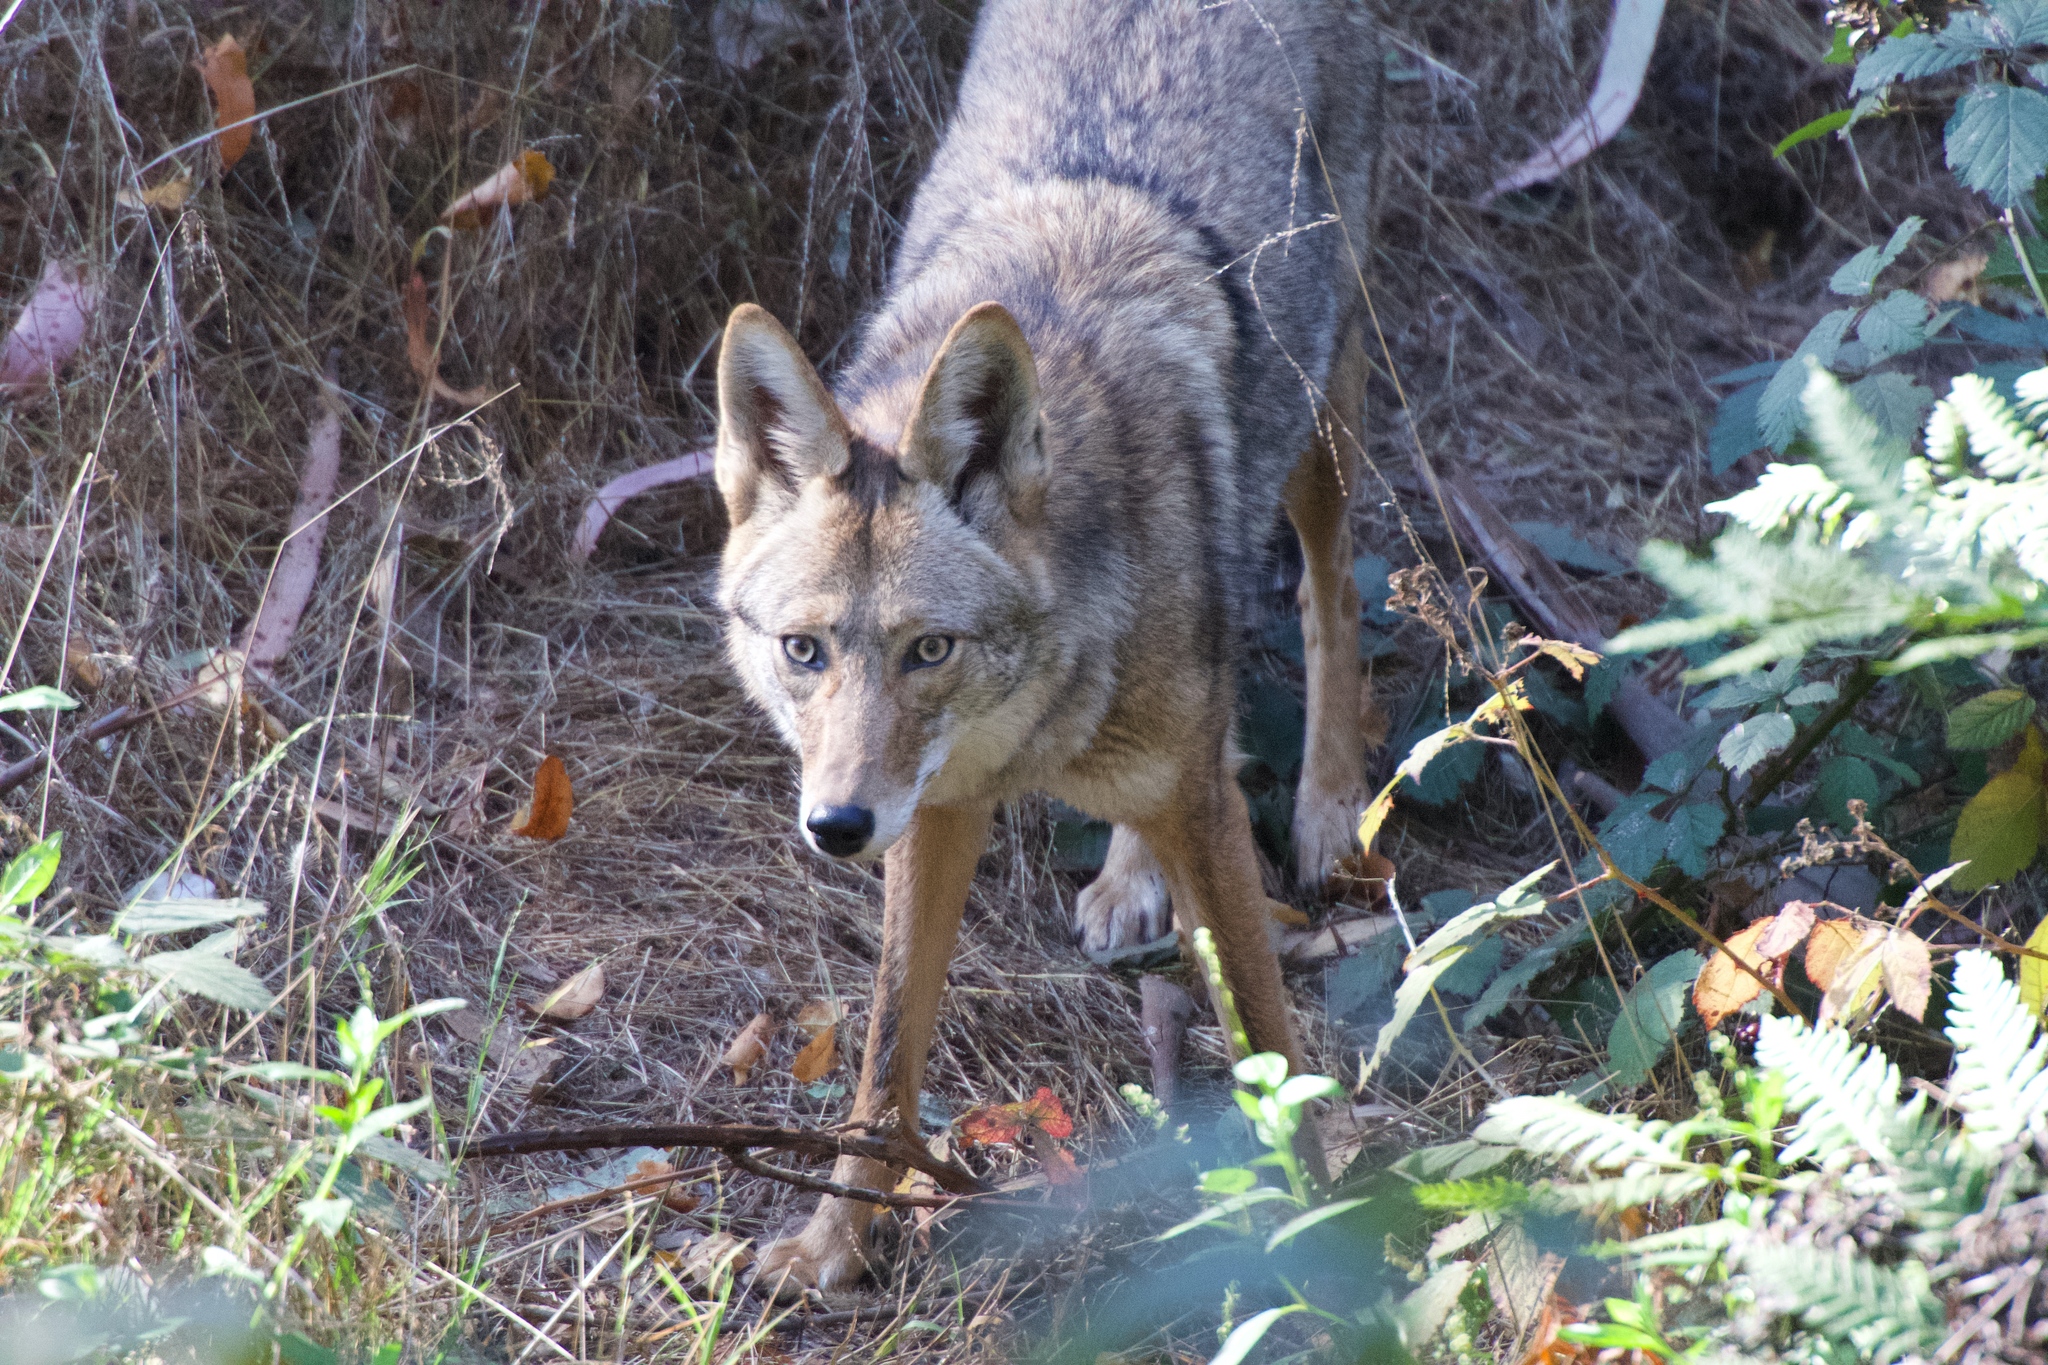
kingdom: Animalia
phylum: Chordata
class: Mammalia
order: Carnivora
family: Canidae
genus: Canis
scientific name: Canis latrans
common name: Coyote
